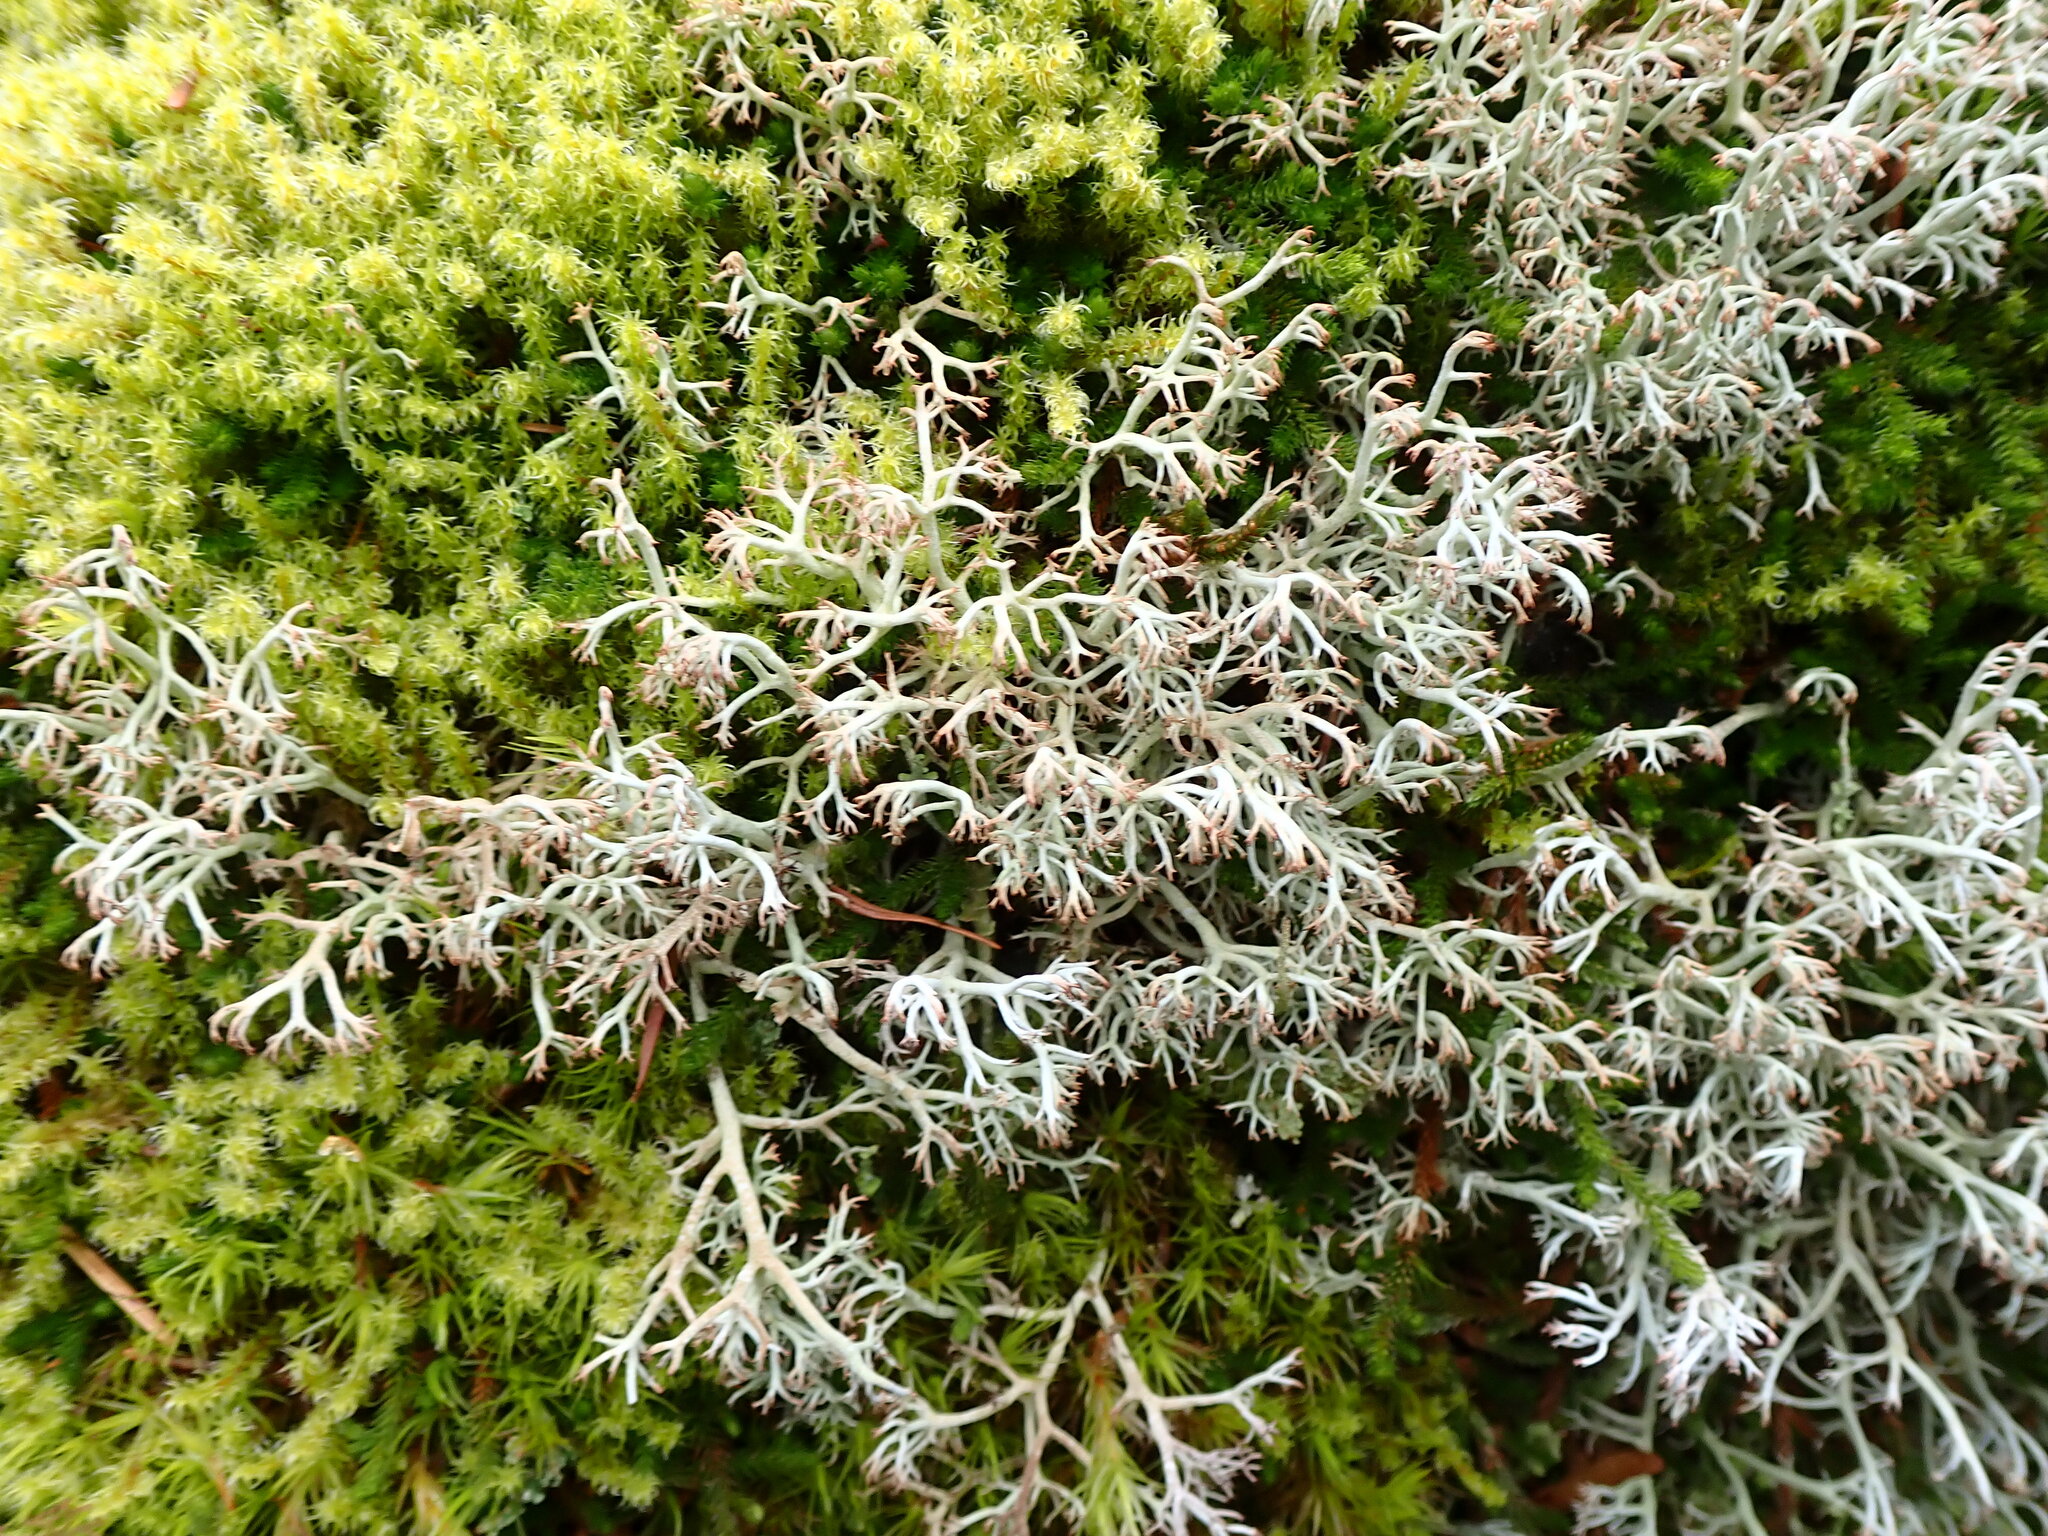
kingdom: Fungi
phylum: Ascomycota
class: Lecanoromycetes
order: Lecanorales
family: Cladoniaceae
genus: Cladonia
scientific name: Cladonia rangiferina
